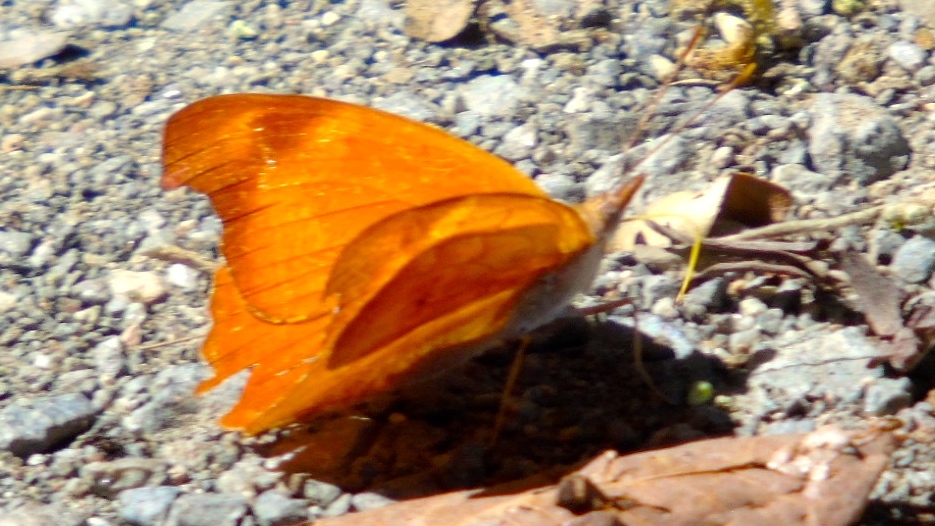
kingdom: Animalia
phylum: Arthropoda
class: Insecta
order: Lepidoptera
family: Nymphalidae
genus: Temenis
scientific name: Temenis laothoe
